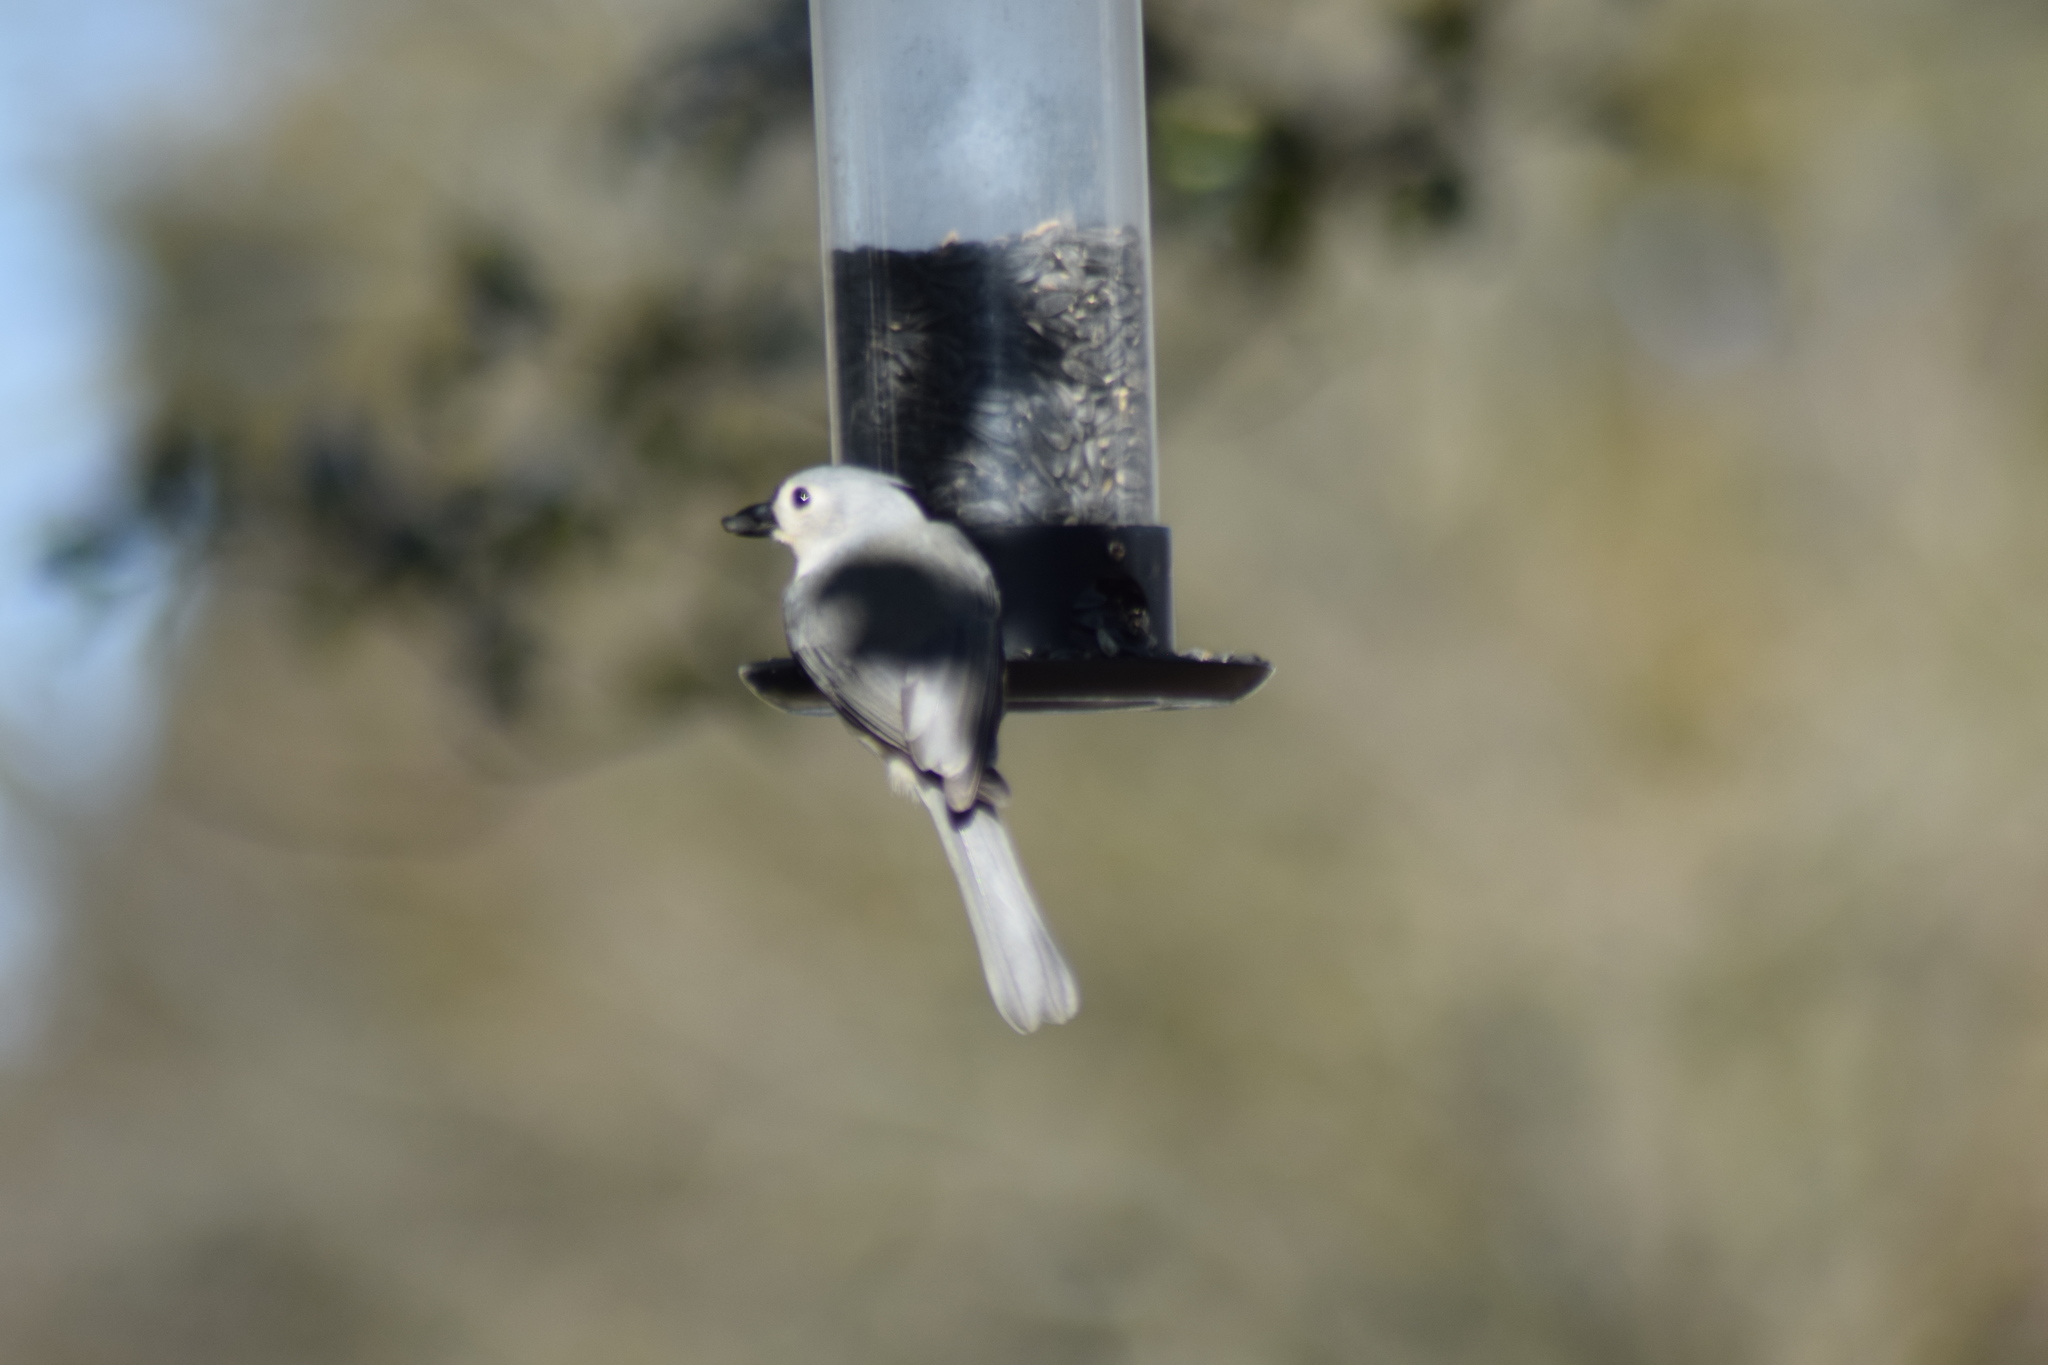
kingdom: Animalia
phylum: Chordata
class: Aves
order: Passeriformes
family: Paridae
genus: Baeolophus
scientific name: Baeolophus bicolor
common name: Tufted titmouse
